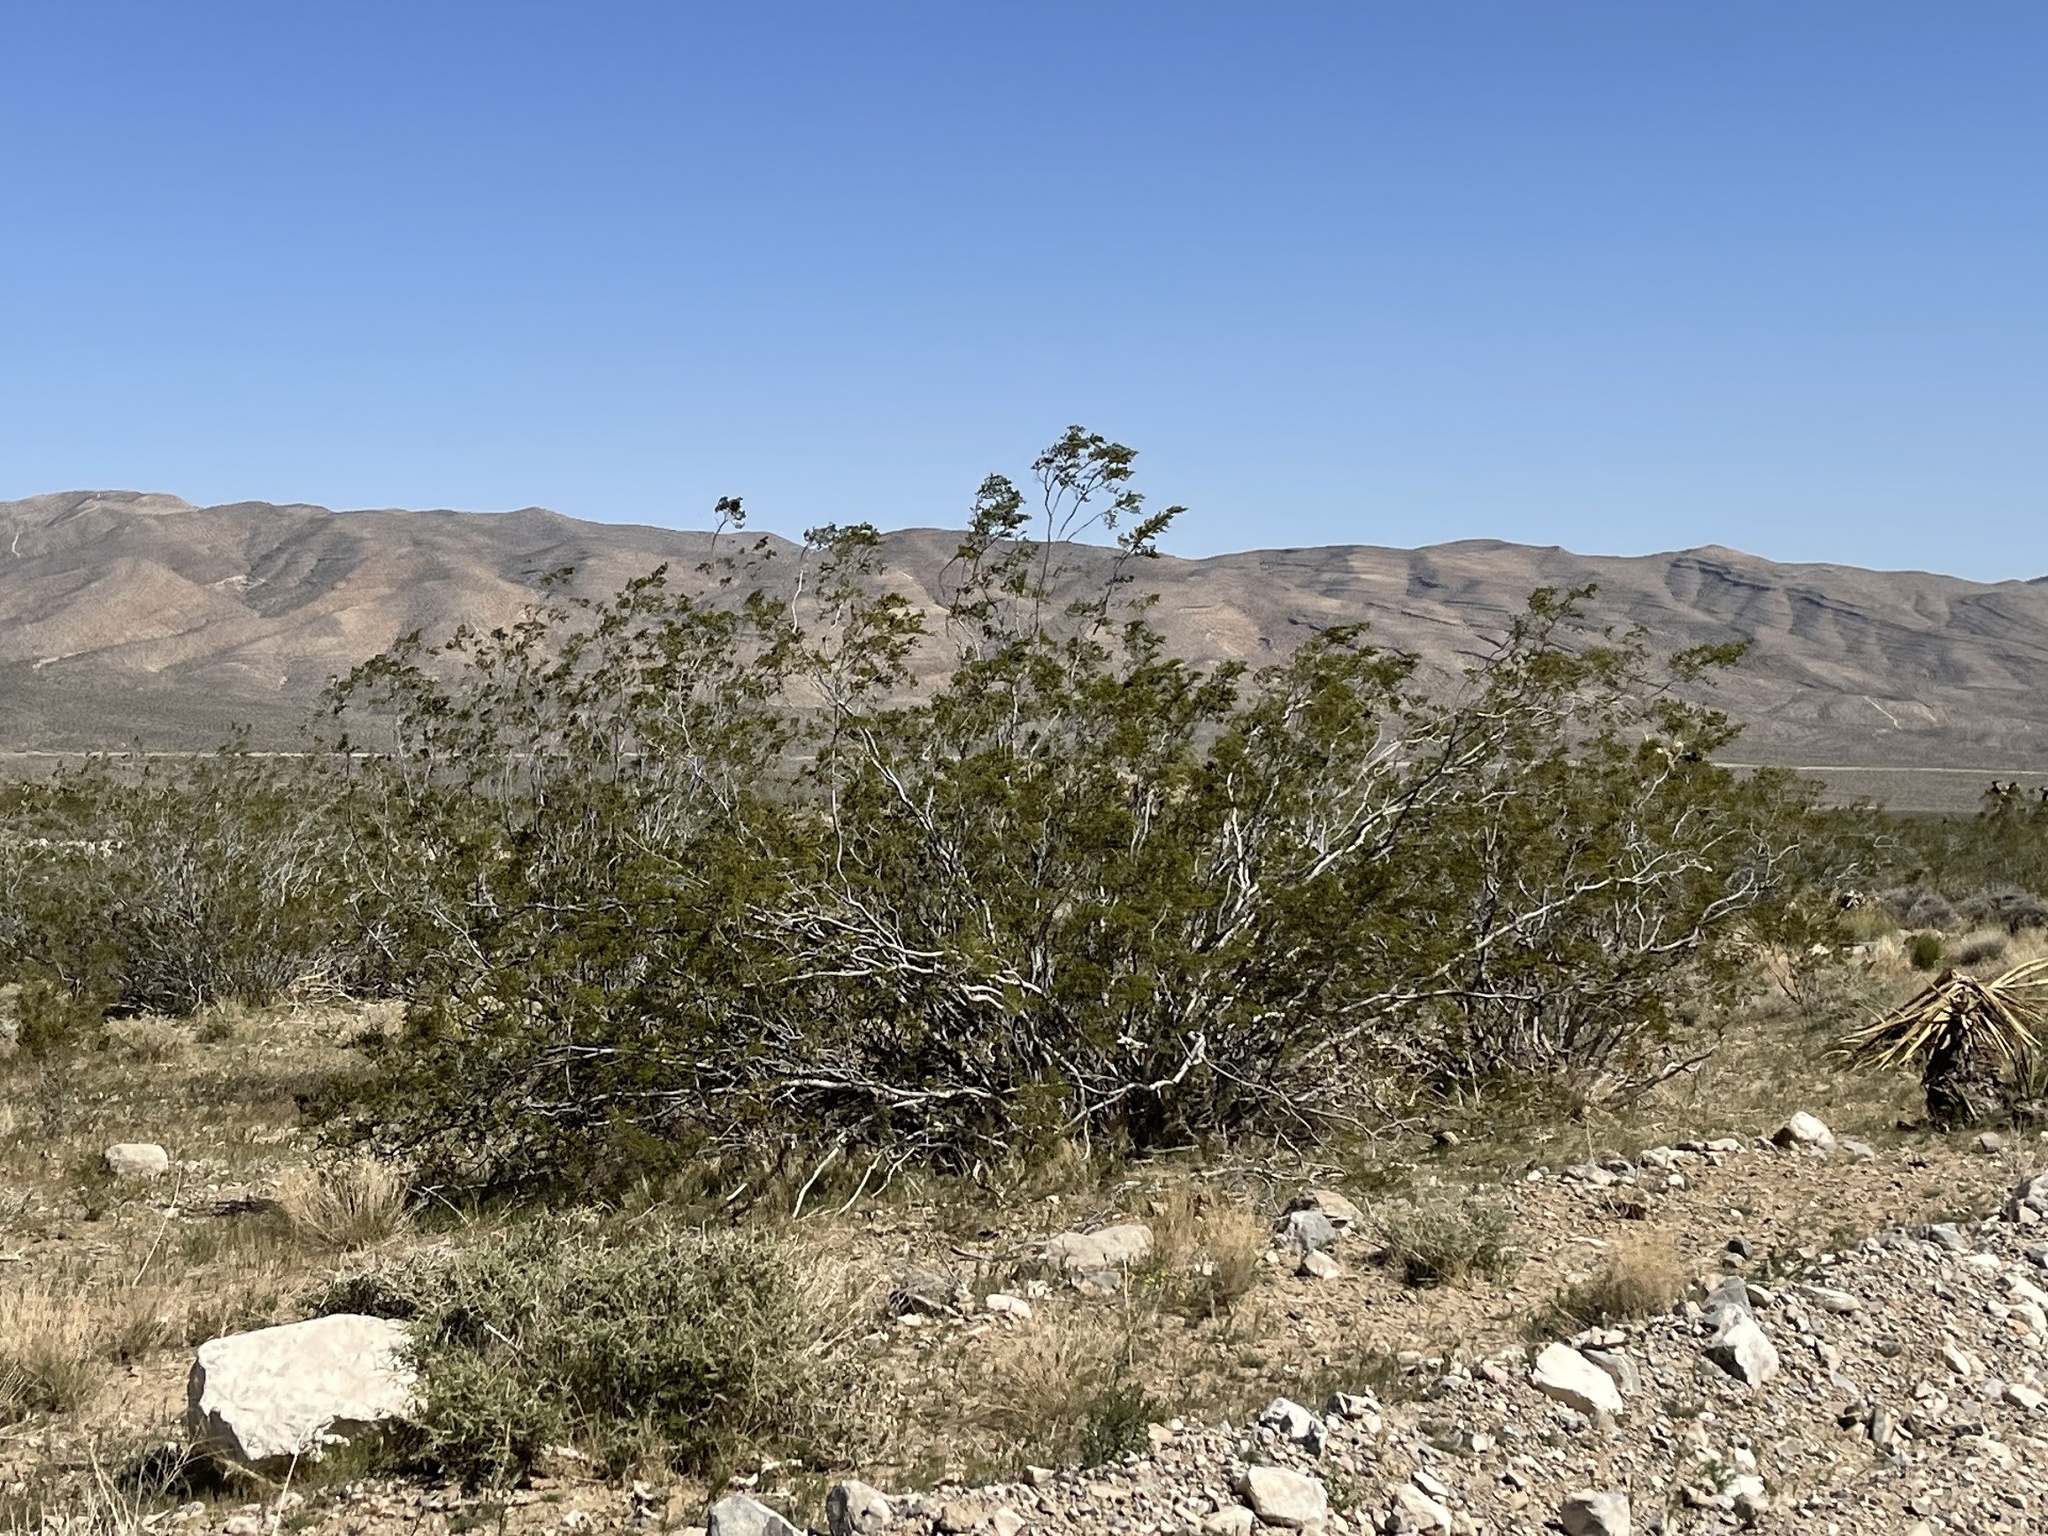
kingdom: Plantae
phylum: Tracheophyta
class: Magnoliopsida
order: Zygophyllales
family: Zygophyllaceae
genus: Larrea
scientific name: Larrea tridentata
